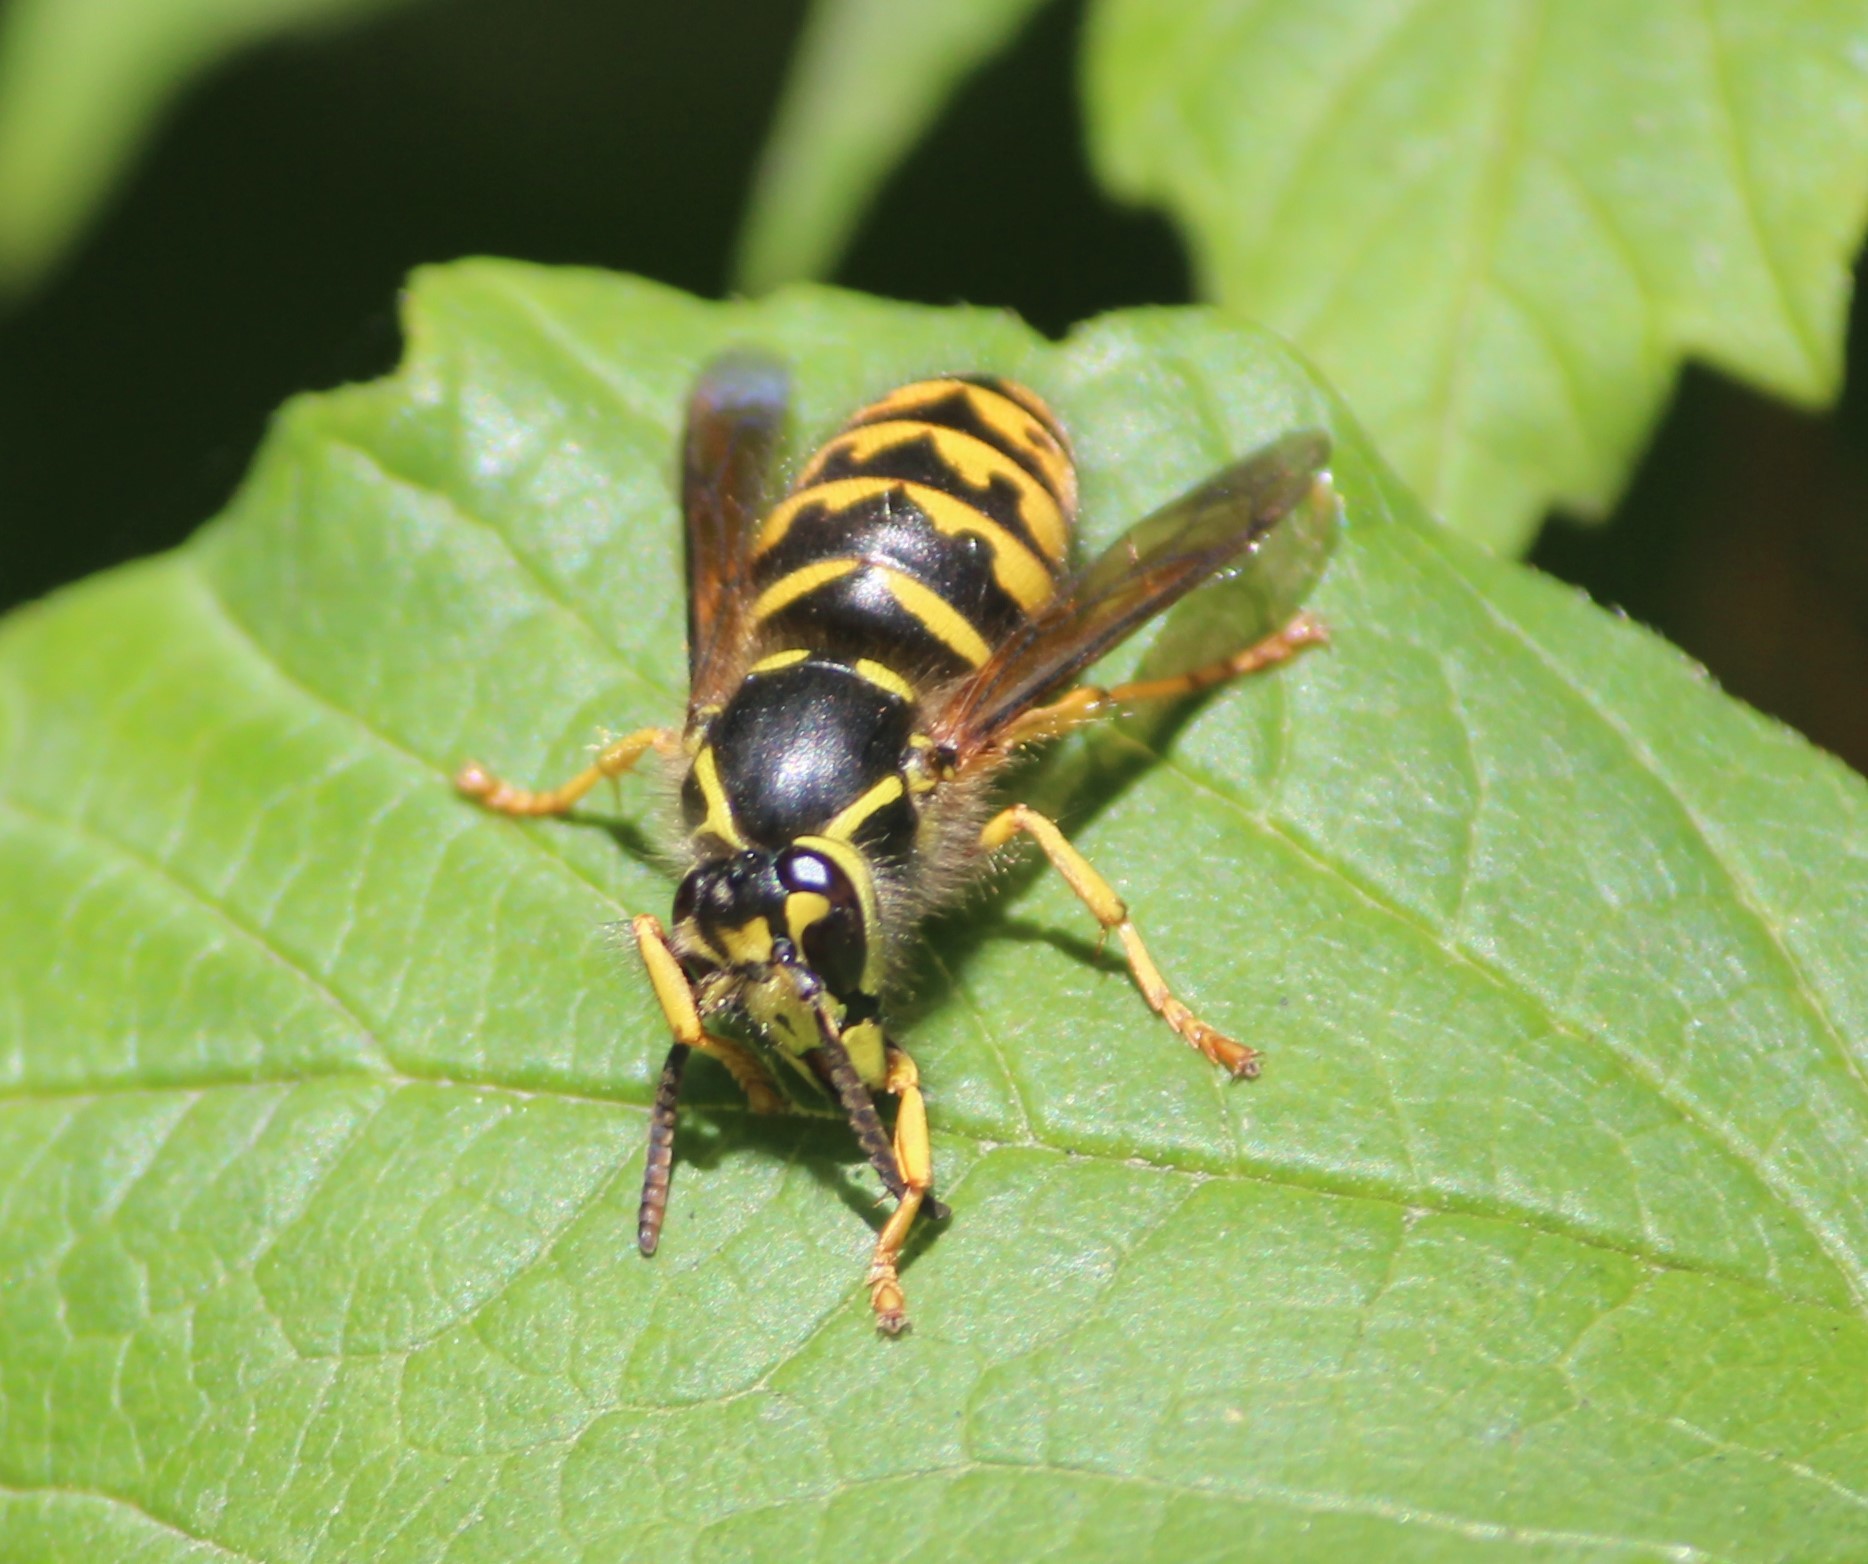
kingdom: Animalia
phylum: Arthropoda
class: Insecta
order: Hymenoptera
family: Vespidae
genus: Dolichovespula
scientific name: Dolichovespula arenaria
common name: Aerial yellowjacket
